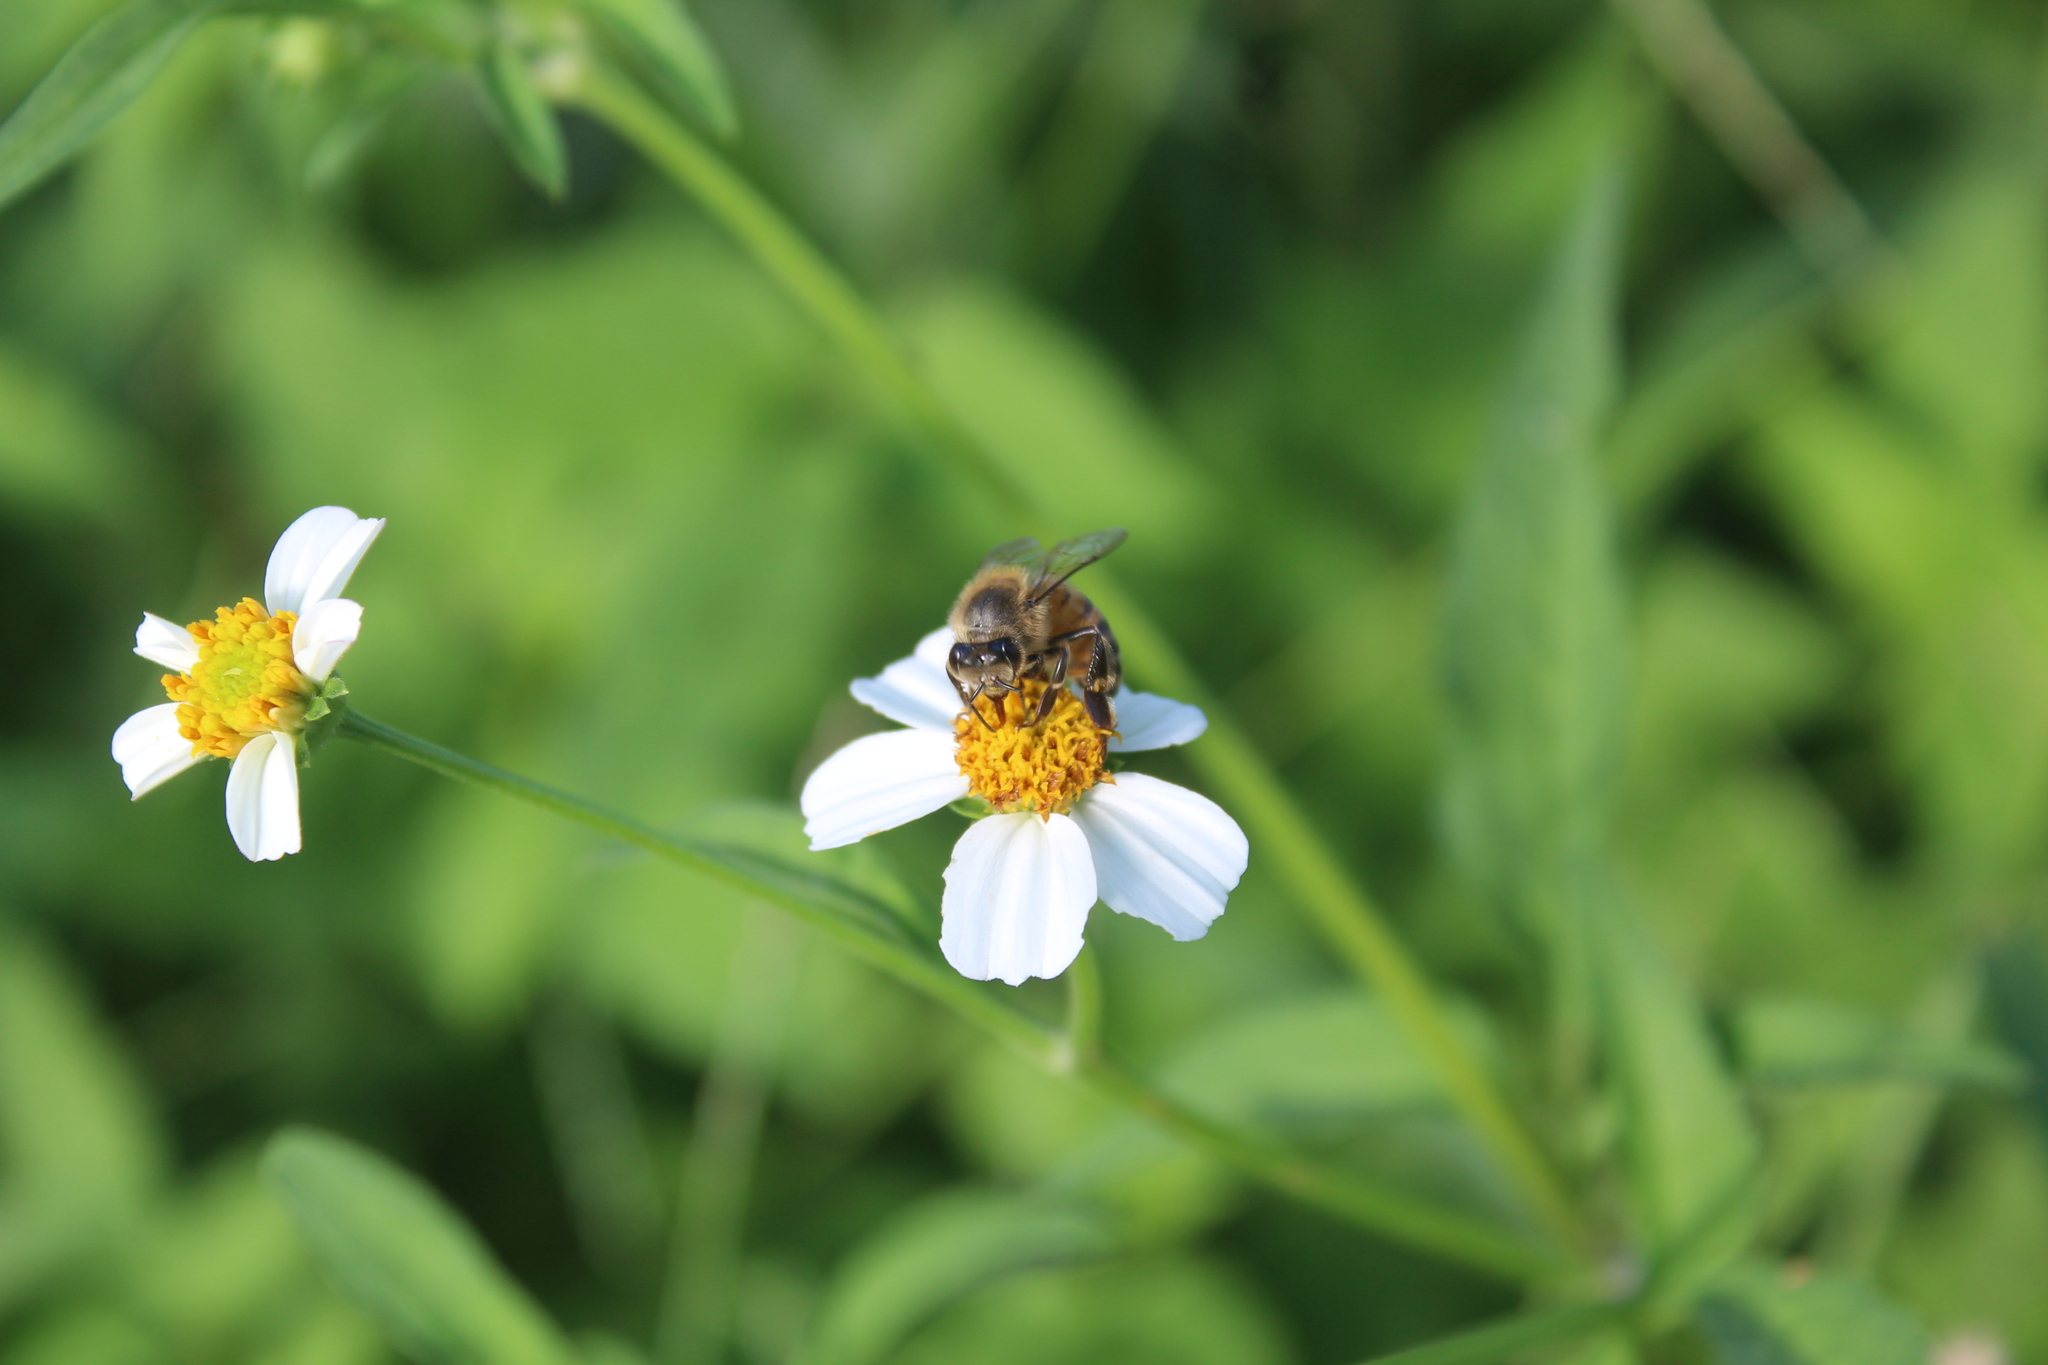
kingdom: Animalia
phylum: Arthropoda
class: Insecta
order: Hymenoptera
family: Apidae
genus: Apis
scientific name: Apis mellifera
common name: Honey bee
